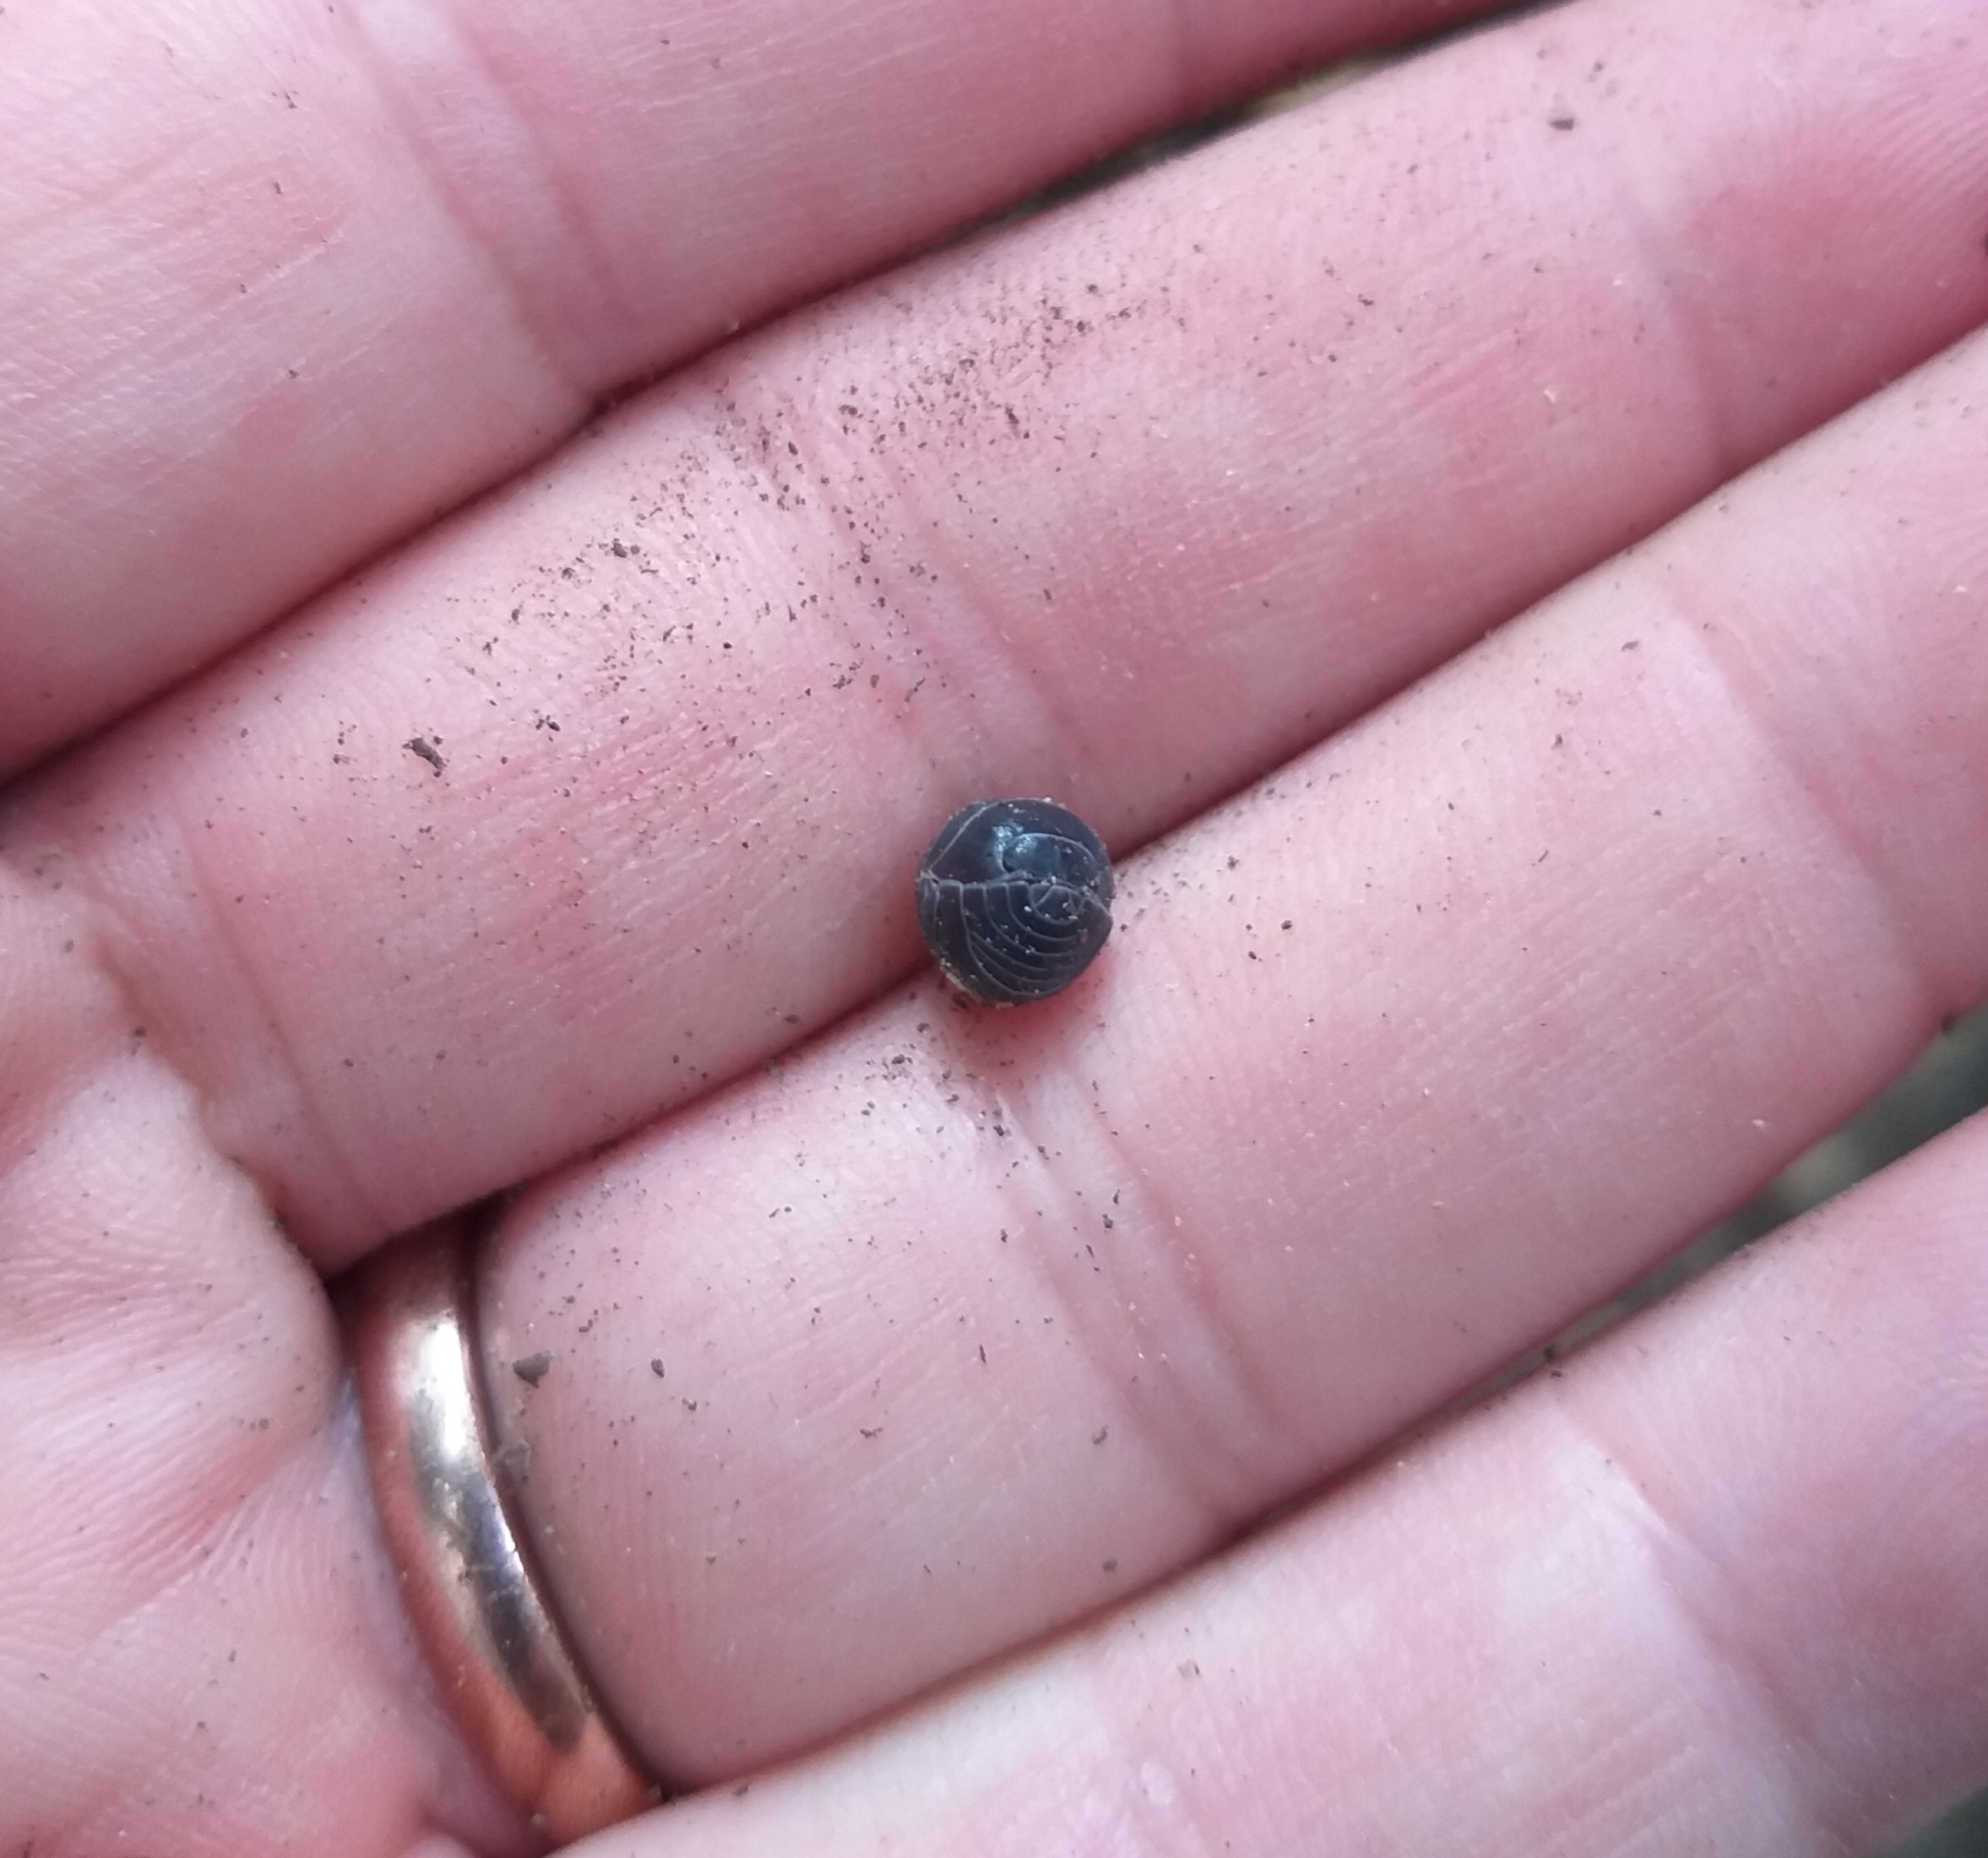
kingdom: Animalia
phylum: Arthropoda
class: Malacostraca
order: Isopoda
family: Armadillidiidae
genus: Armadillidium
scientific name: Armadillidium vulgare
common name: Common pill woodlouse
